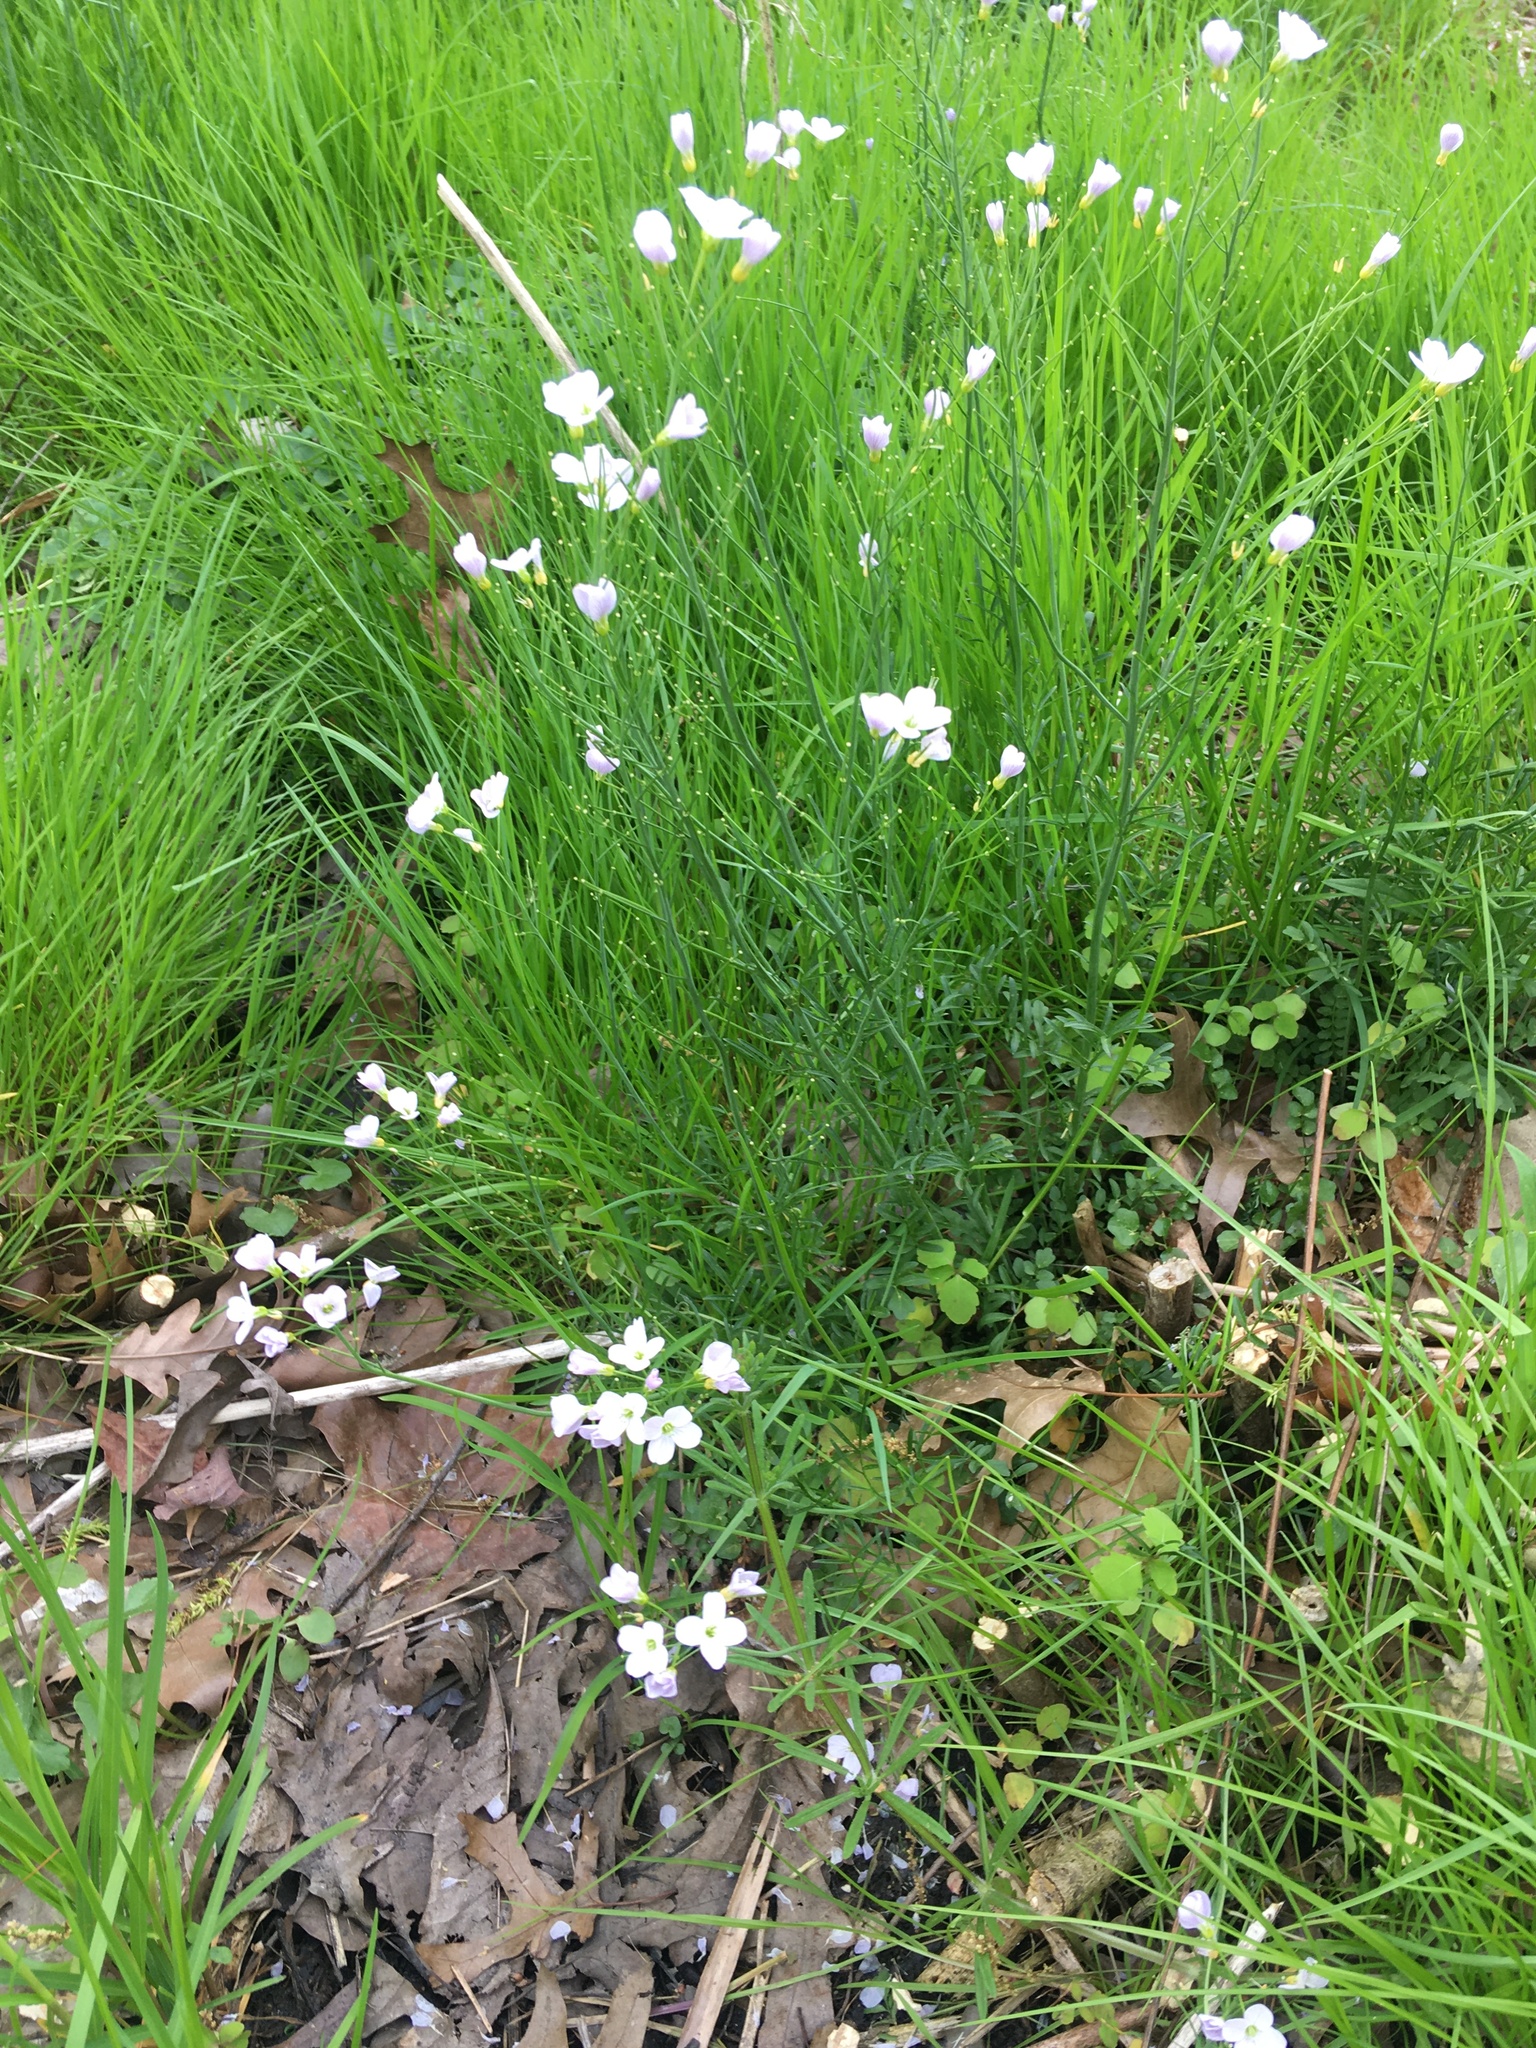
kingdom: Plantae
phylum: Tracheophyta
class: Magnoliopsida
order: Brassicales
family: Brassicaceae
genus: Cardamine
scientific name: Cardamine pratensis
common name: Cuckoo flower
